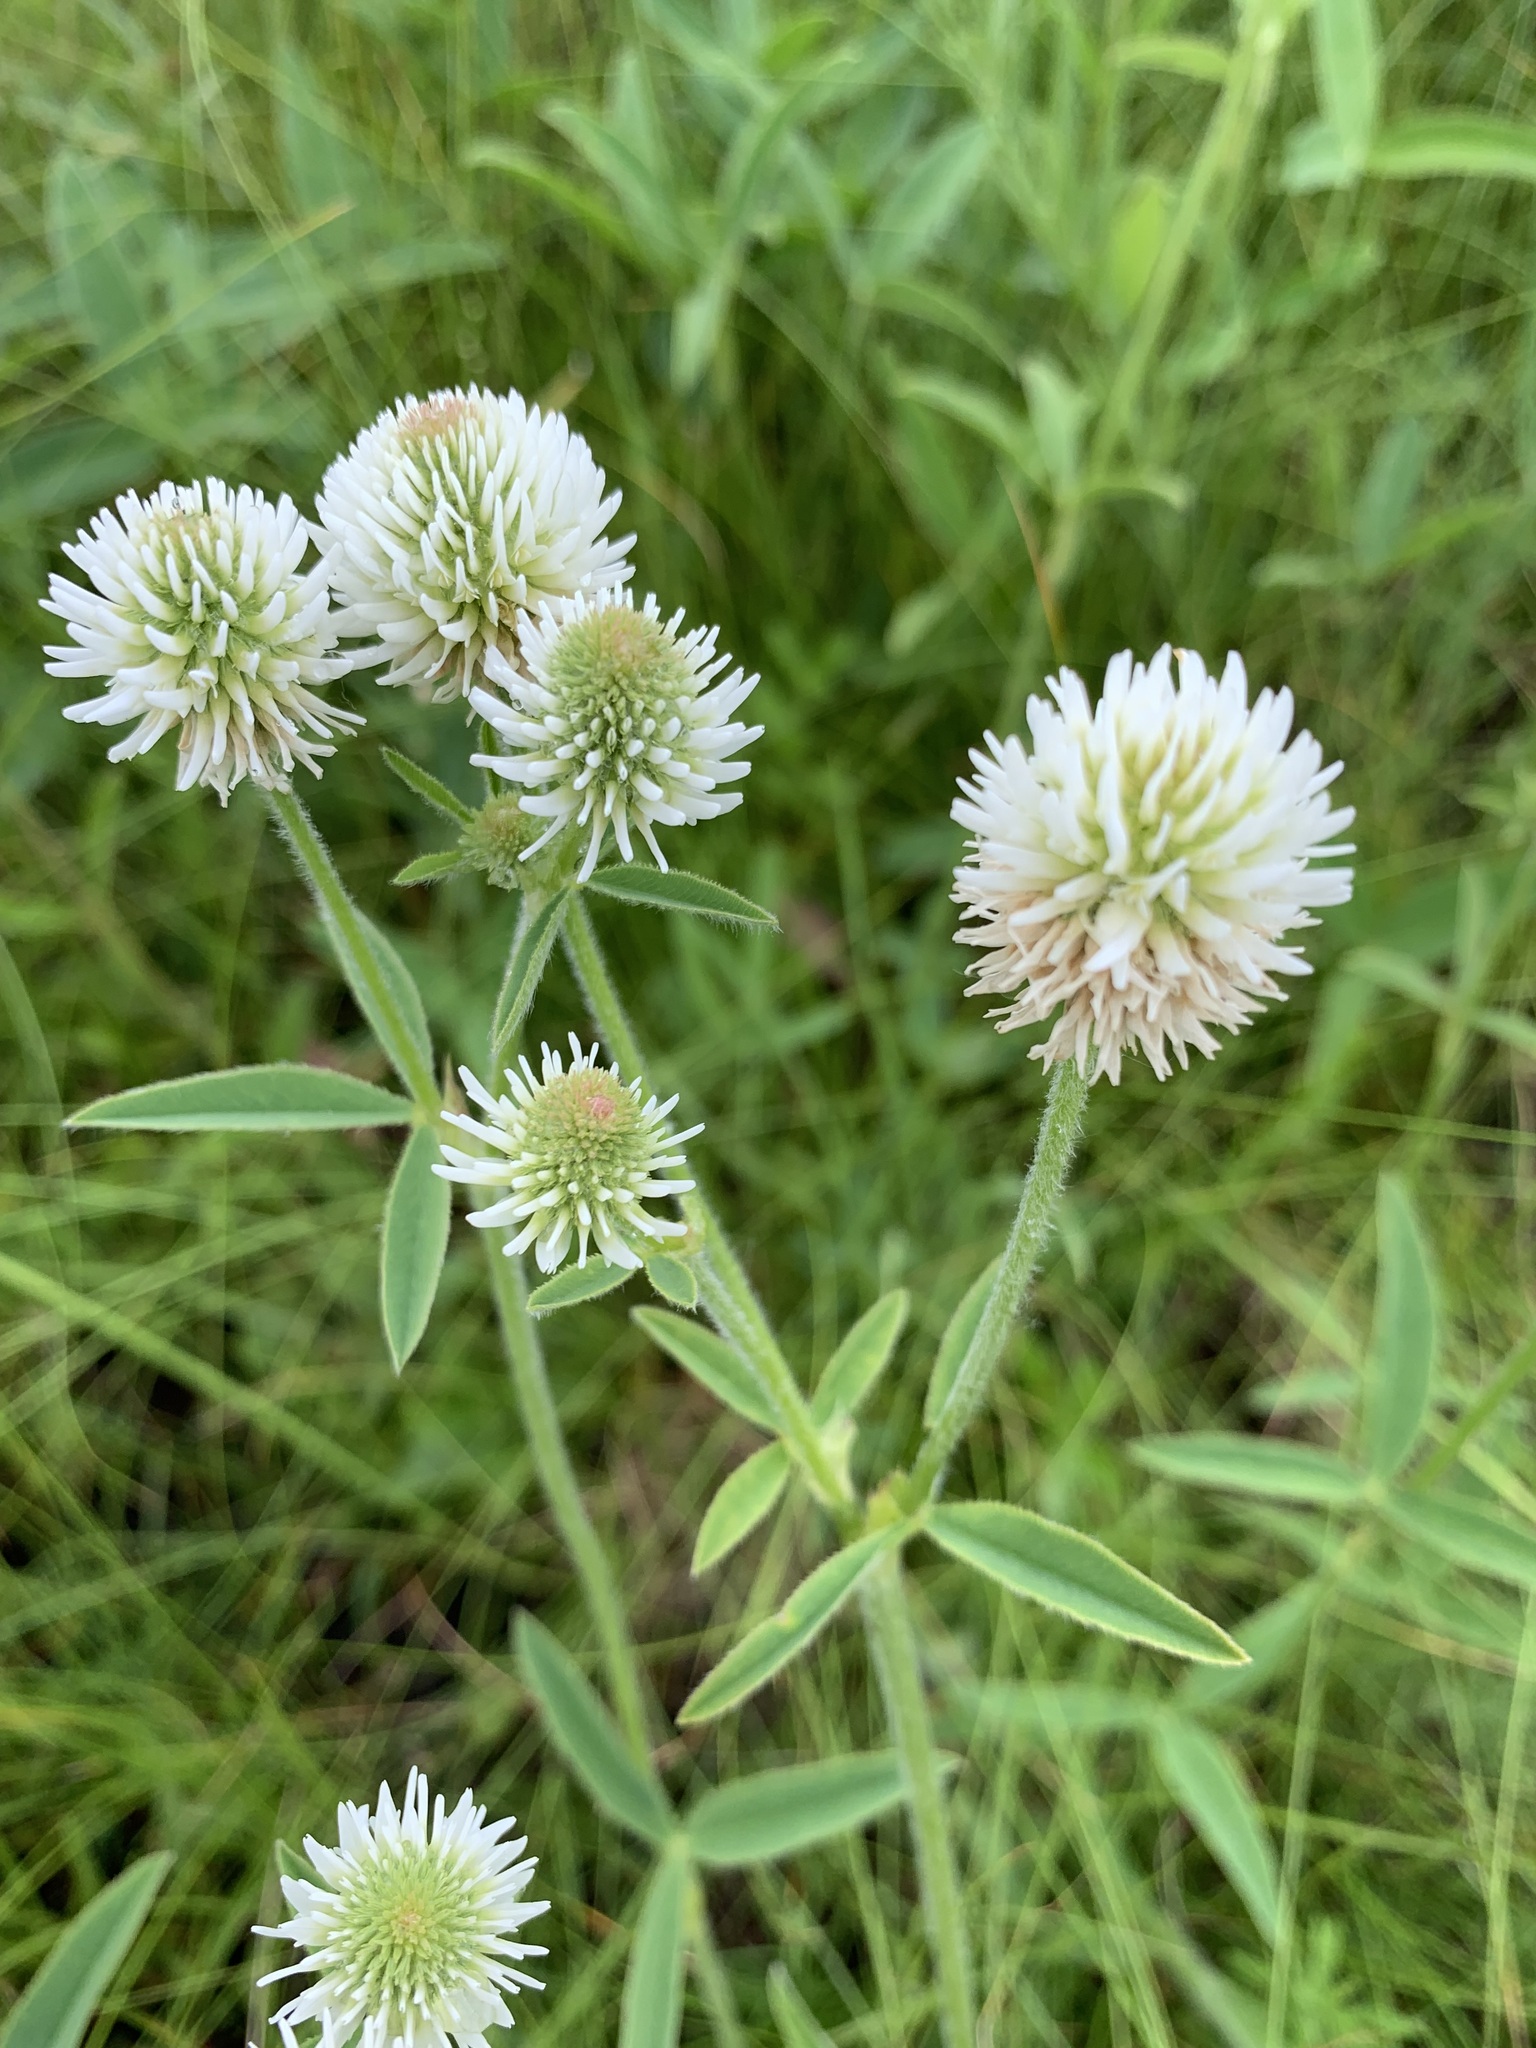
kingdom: Plantae
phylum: Tracheophyta
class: Magnoliopsida
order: Fabales
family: Fabaceae
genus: Trifolium
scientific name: Trifolium montanum
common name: Mountain clover
